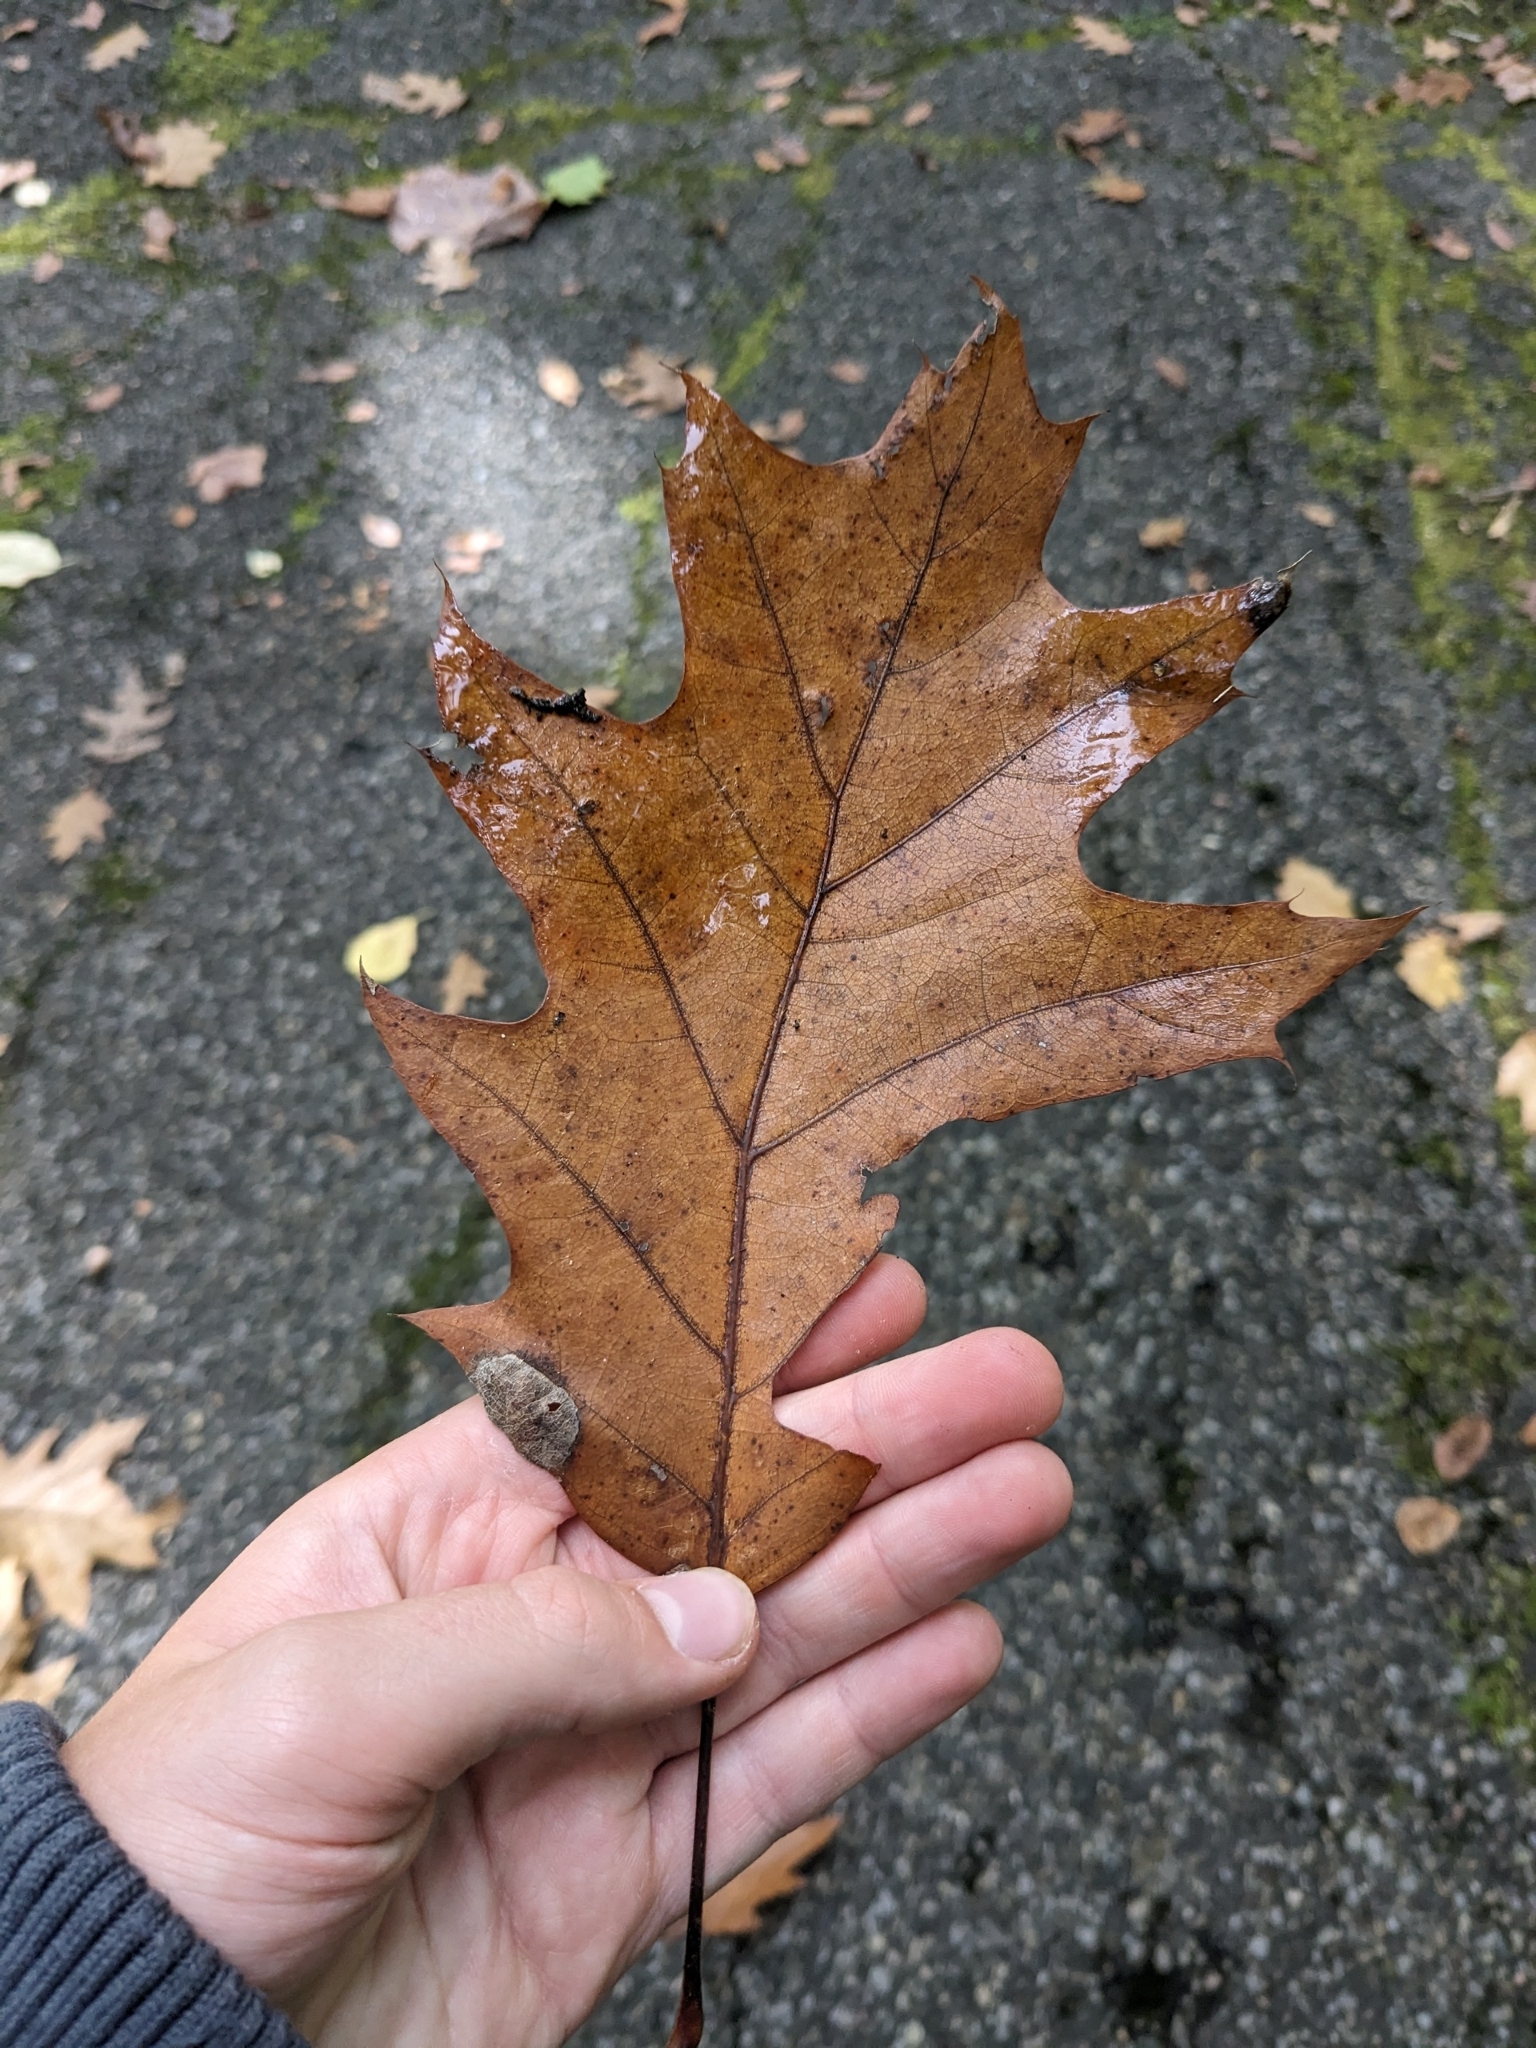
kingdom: Plantae
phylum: Tracheophyta
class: Magnoliopsida
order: Fagales
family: Fagaceae
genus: Quercus
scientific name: Quercus rubra
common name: Red oak
